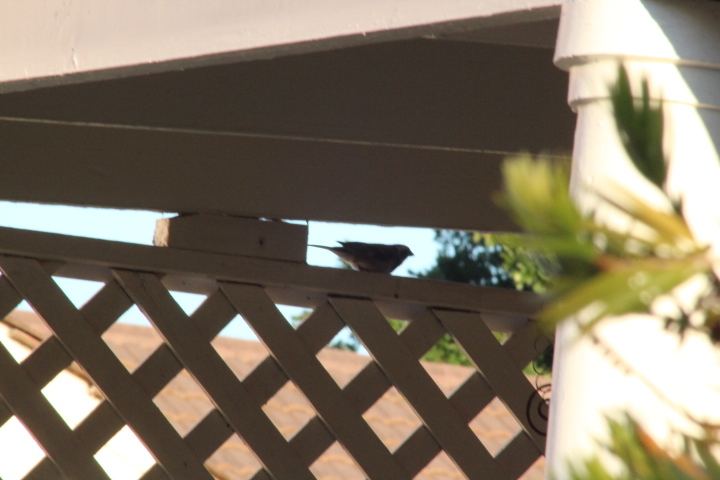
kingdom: Animalia
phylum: Chordata
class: Aves
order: Passeriformes
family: Passeridae
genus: Passer
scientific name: Passer melanurus
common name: Cape sparrow
